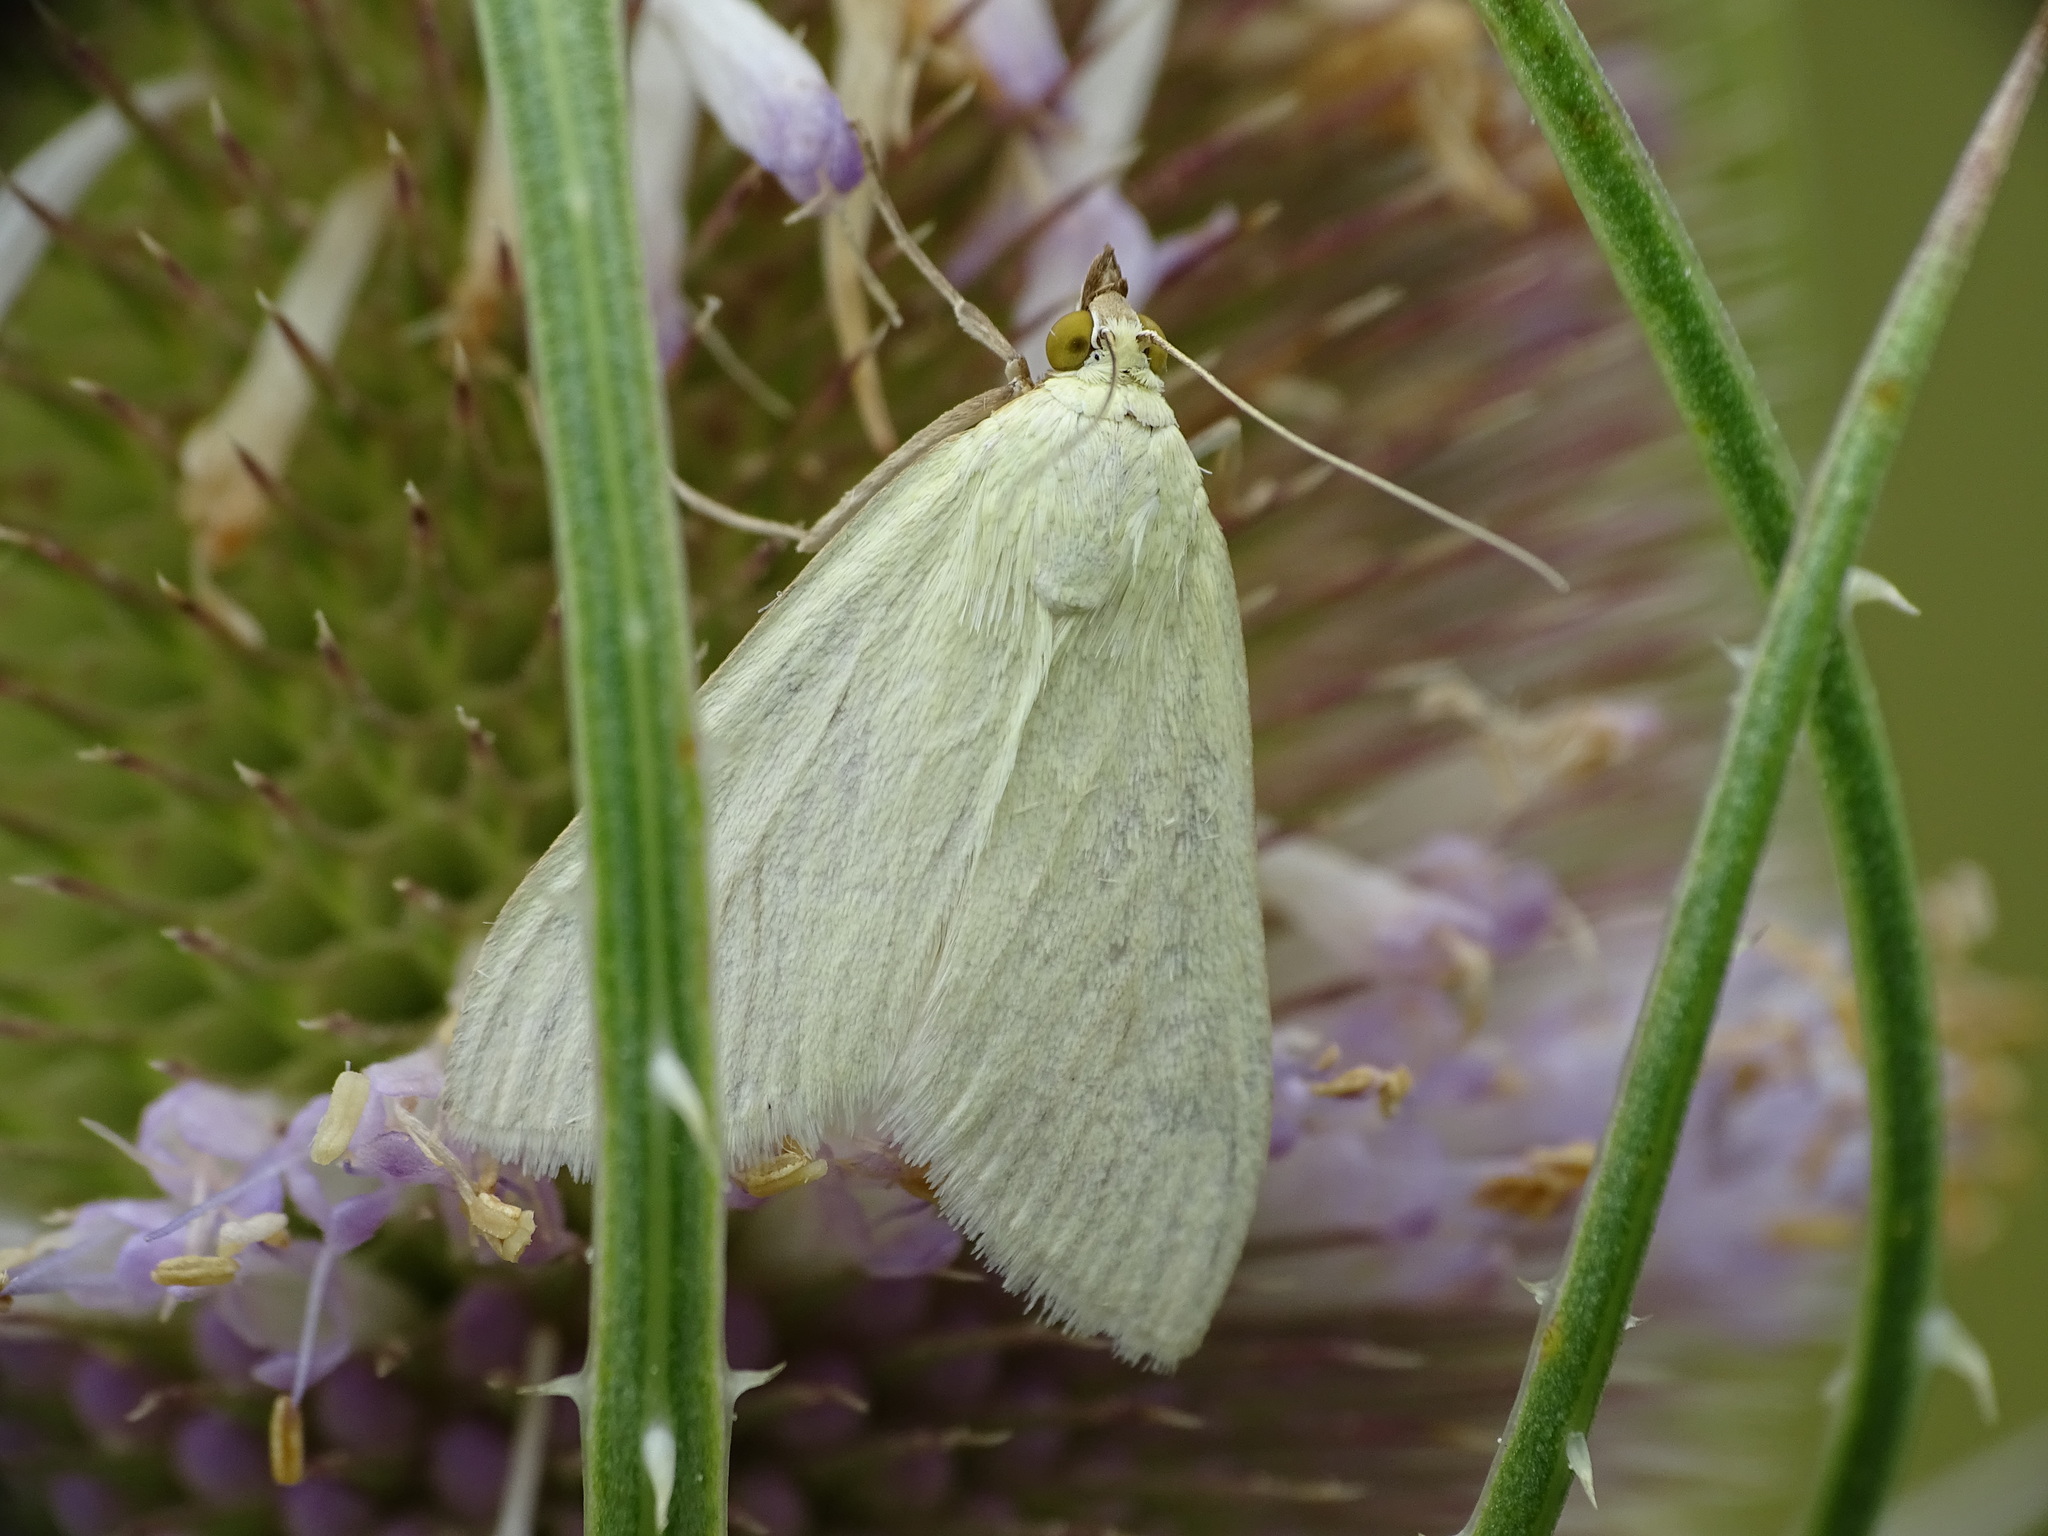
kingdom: Animalia
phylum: Arthropoda
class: Insecta
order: Lepidoptera
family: Crambidae
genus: Sitochroa
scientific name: Sitochroa palealis
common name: Greenish-yellow sitochroa moth
